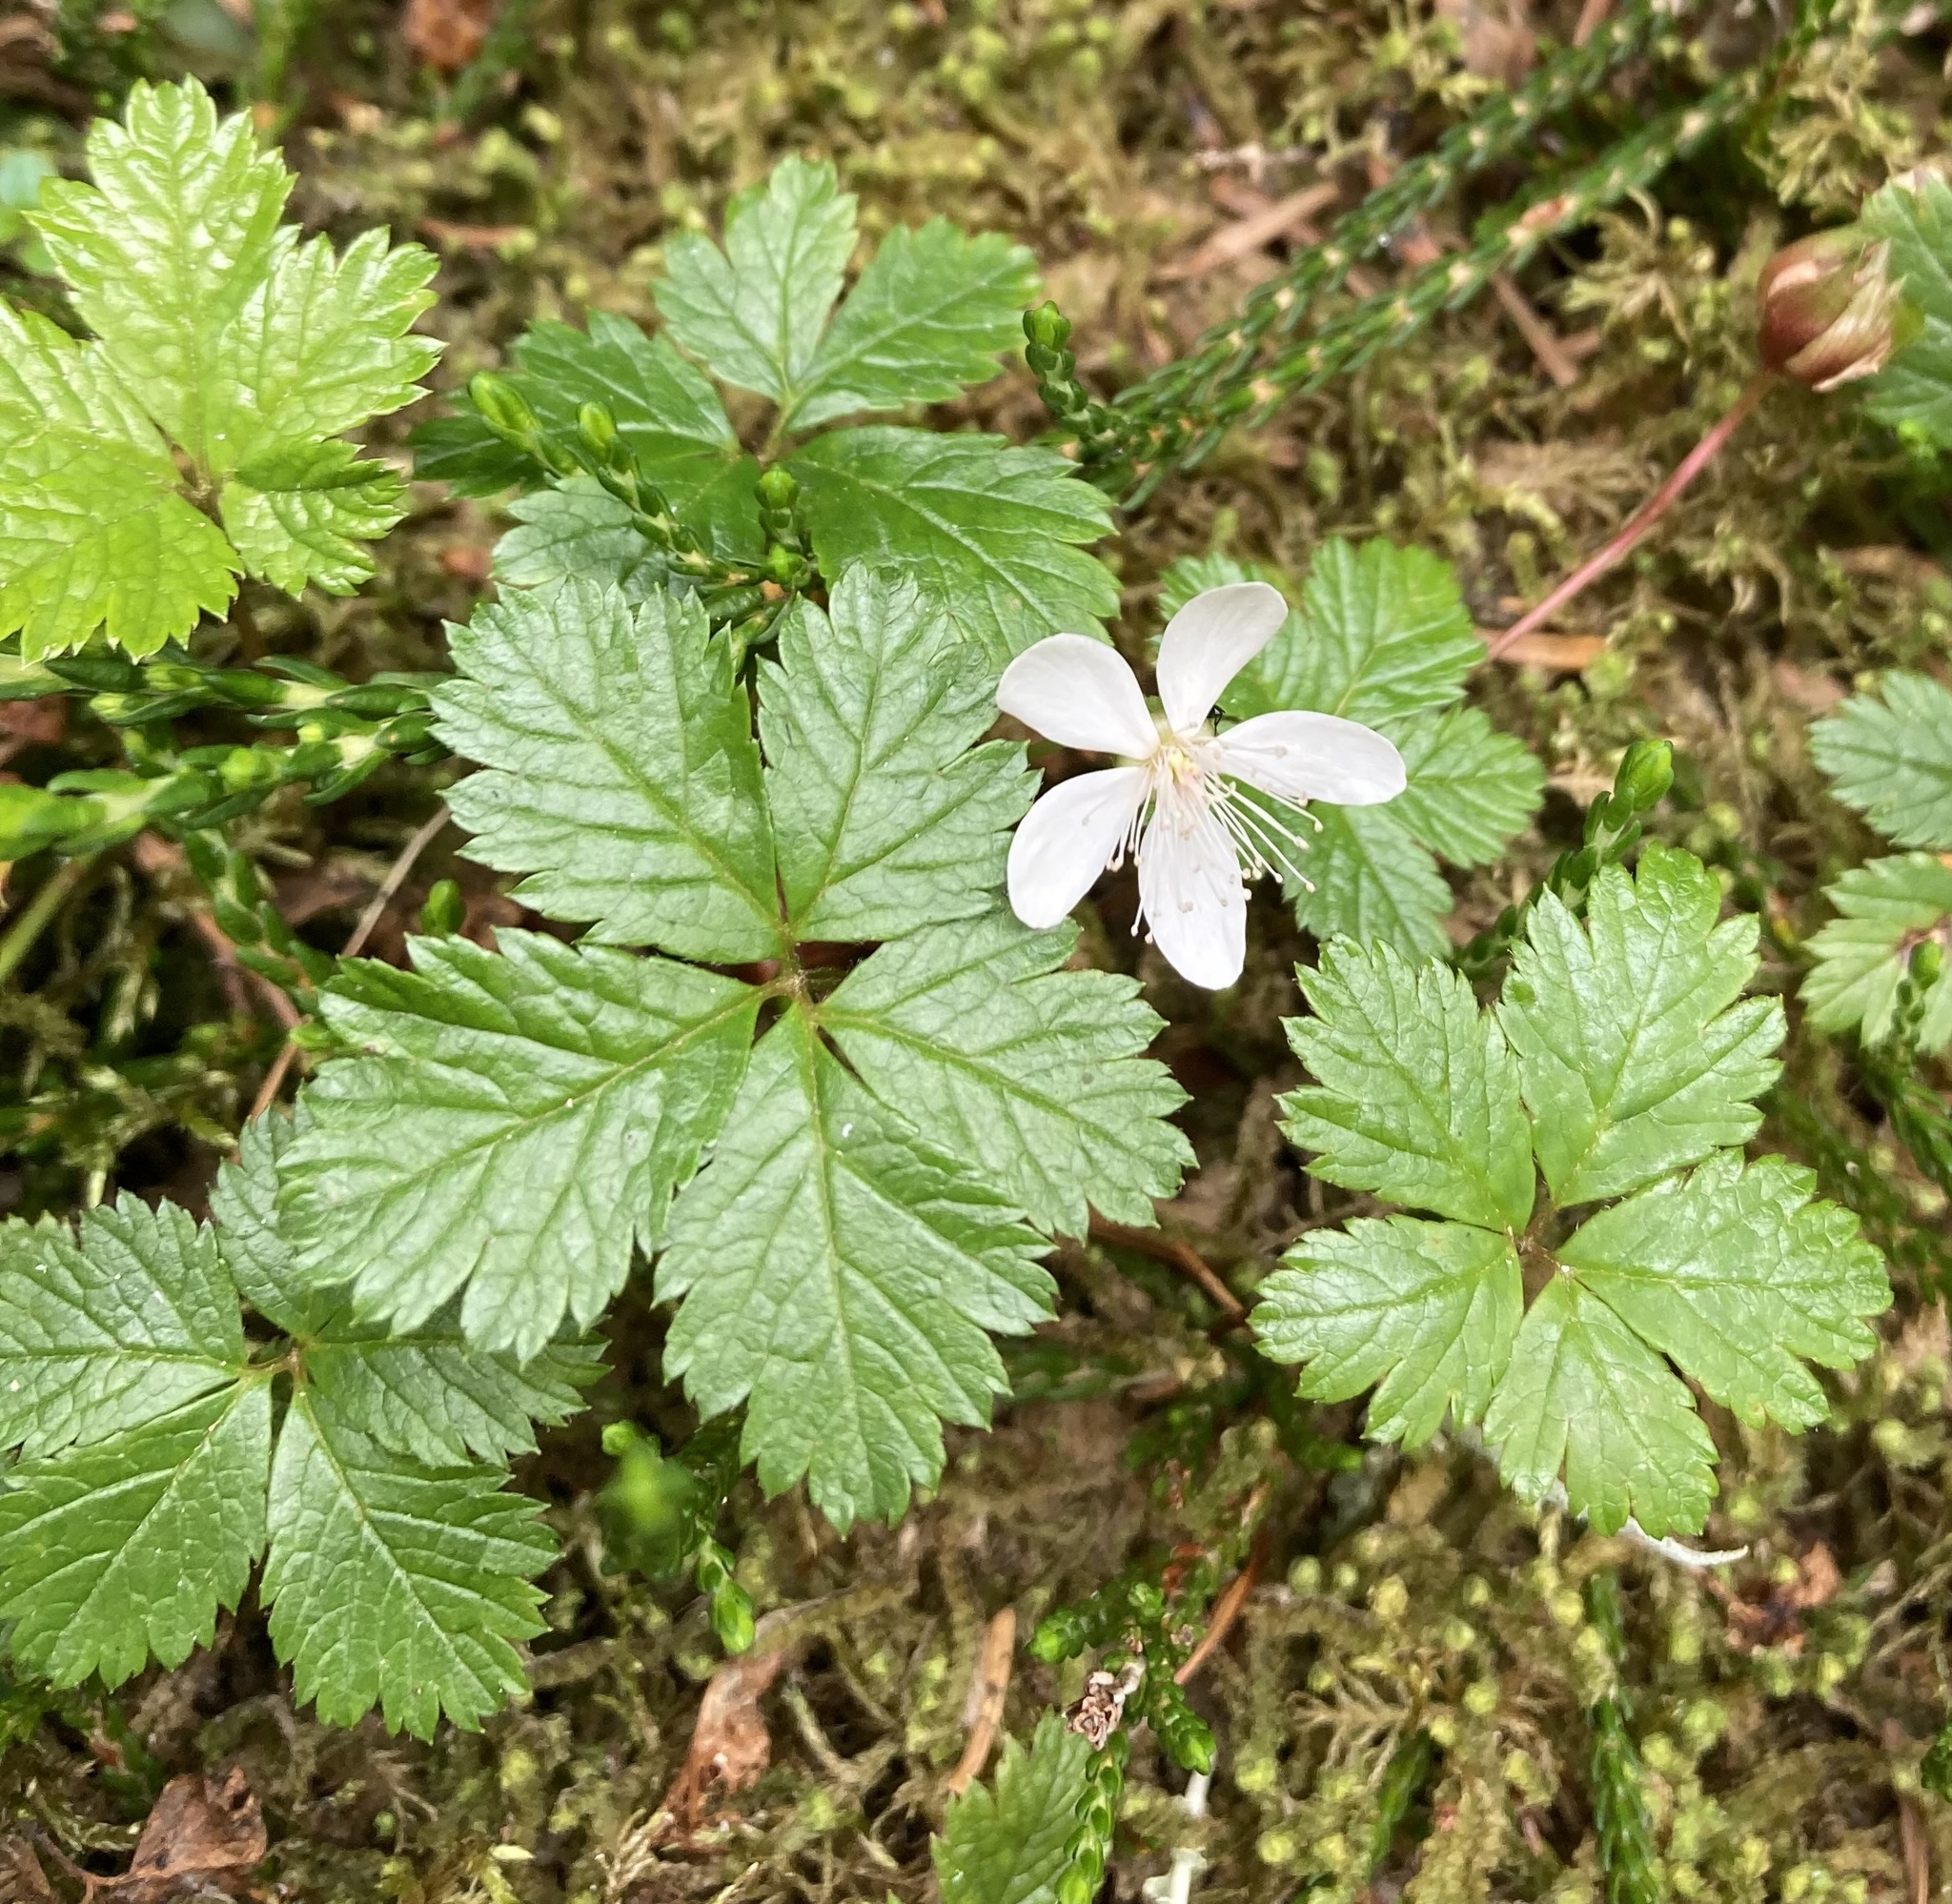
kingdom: Plantae
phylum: Tracheophyta
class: Magnoliopsida
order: Rosales
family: Rosaceae
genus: Rubus
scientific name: Rubus pedatus
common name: Creeping raspberry
